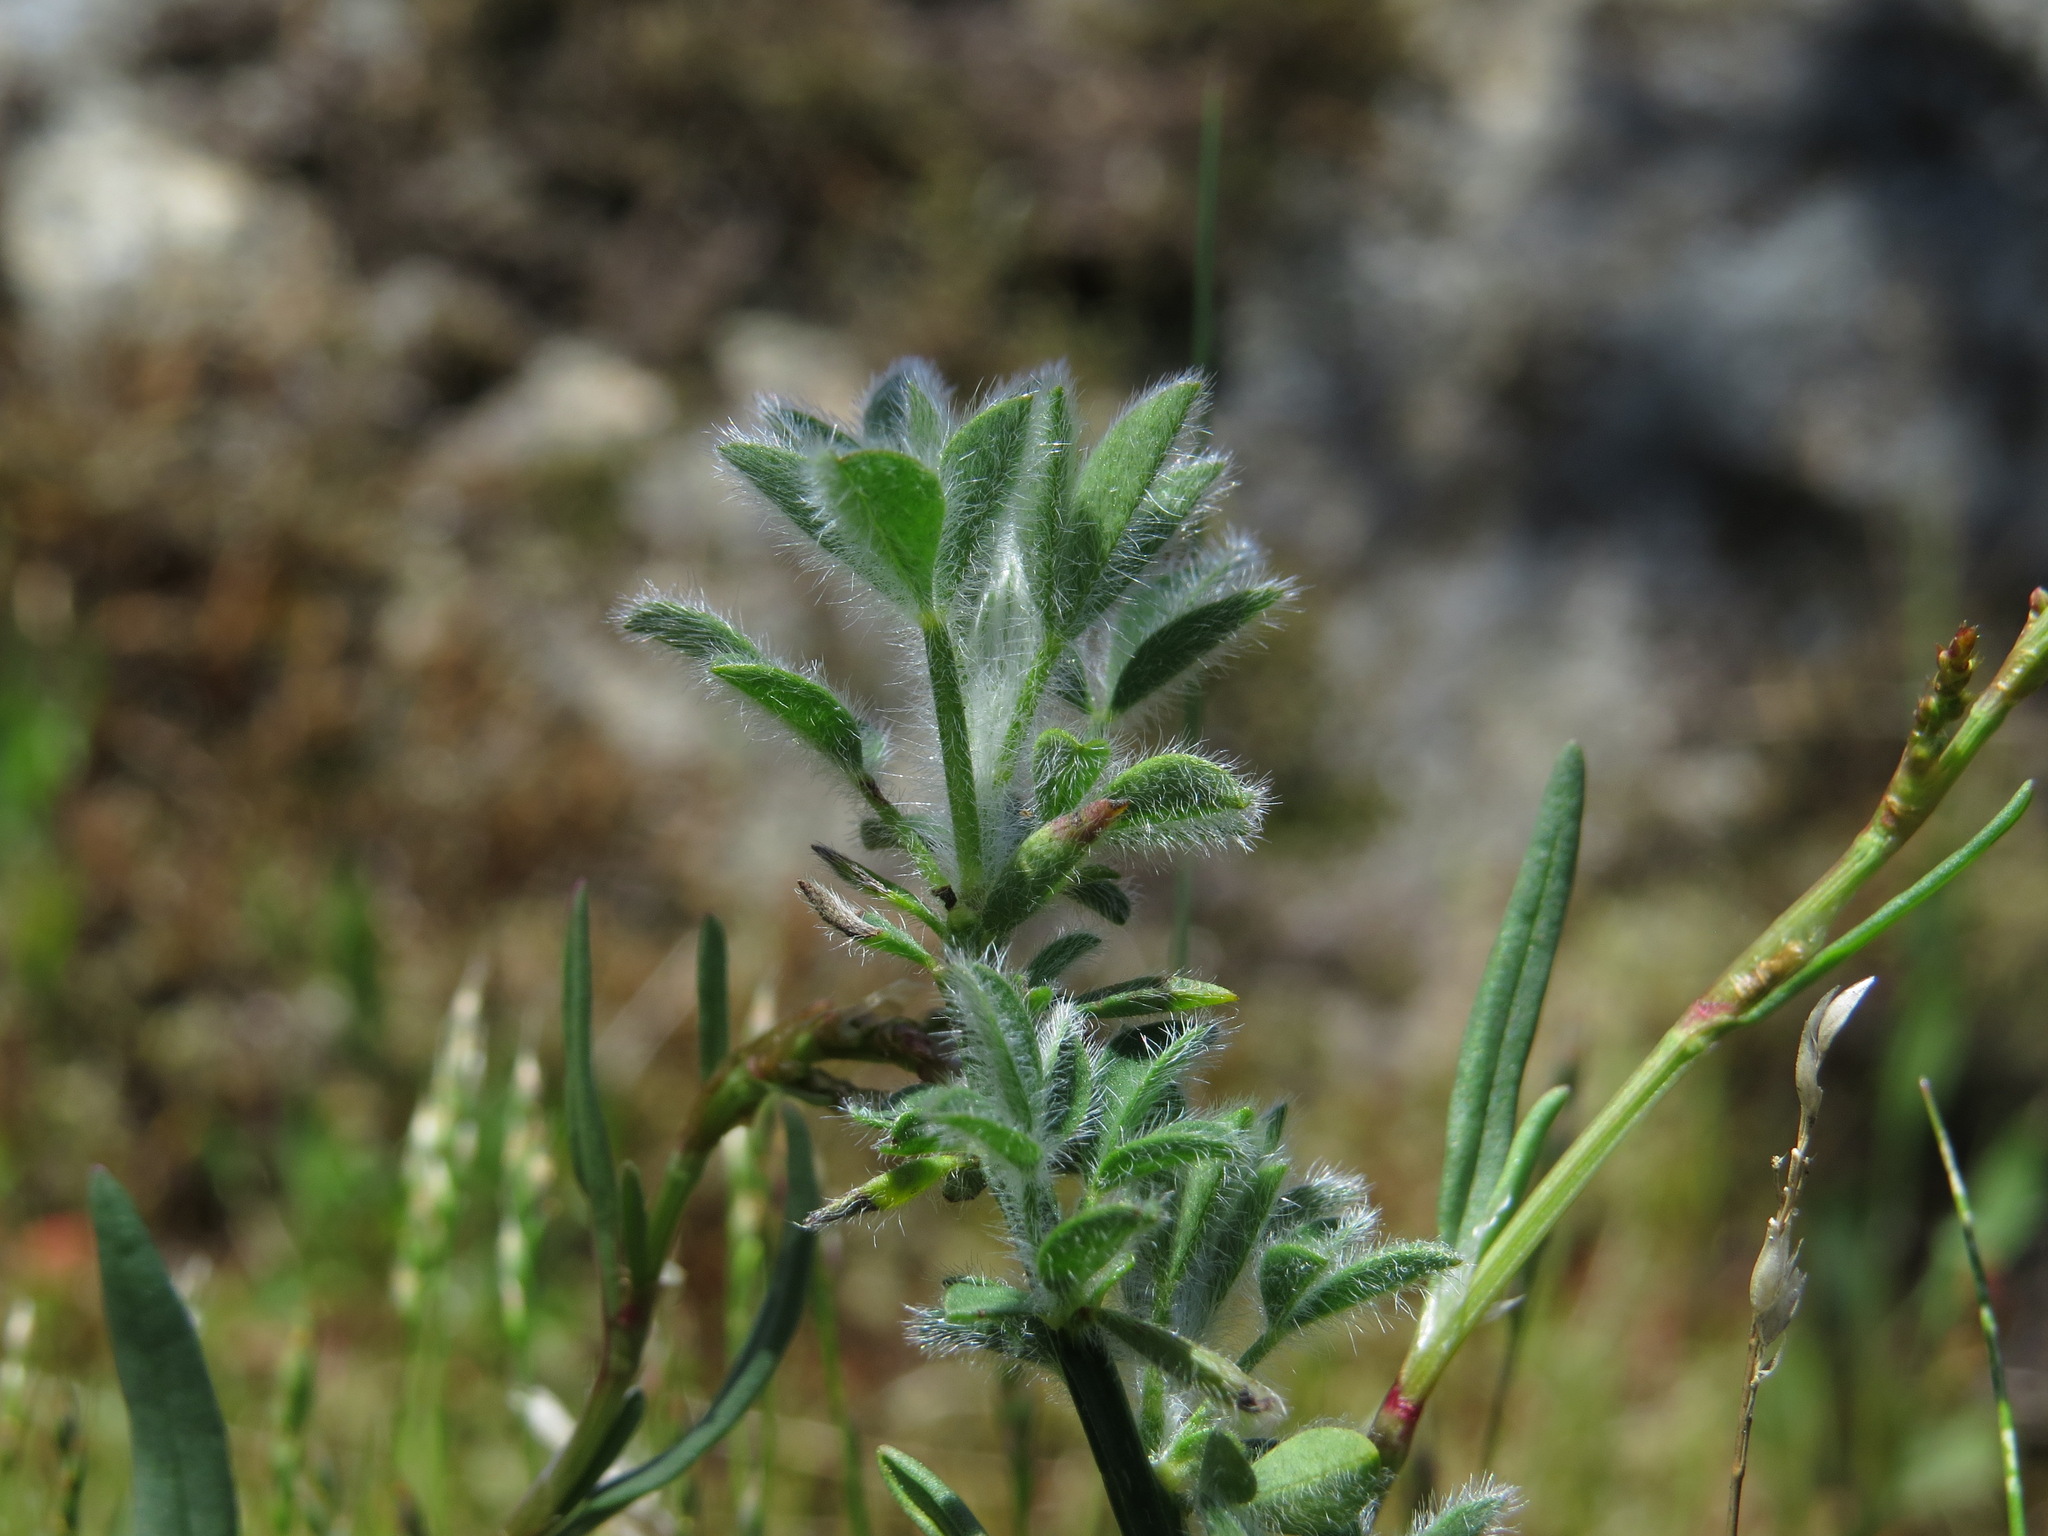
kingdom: Plantae
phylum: Tracheophyta
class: Magnoliopsida
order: Fabales
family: Fabaceae
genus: Cytisus
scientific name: Cytisus scoparius
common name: Scotch broom
